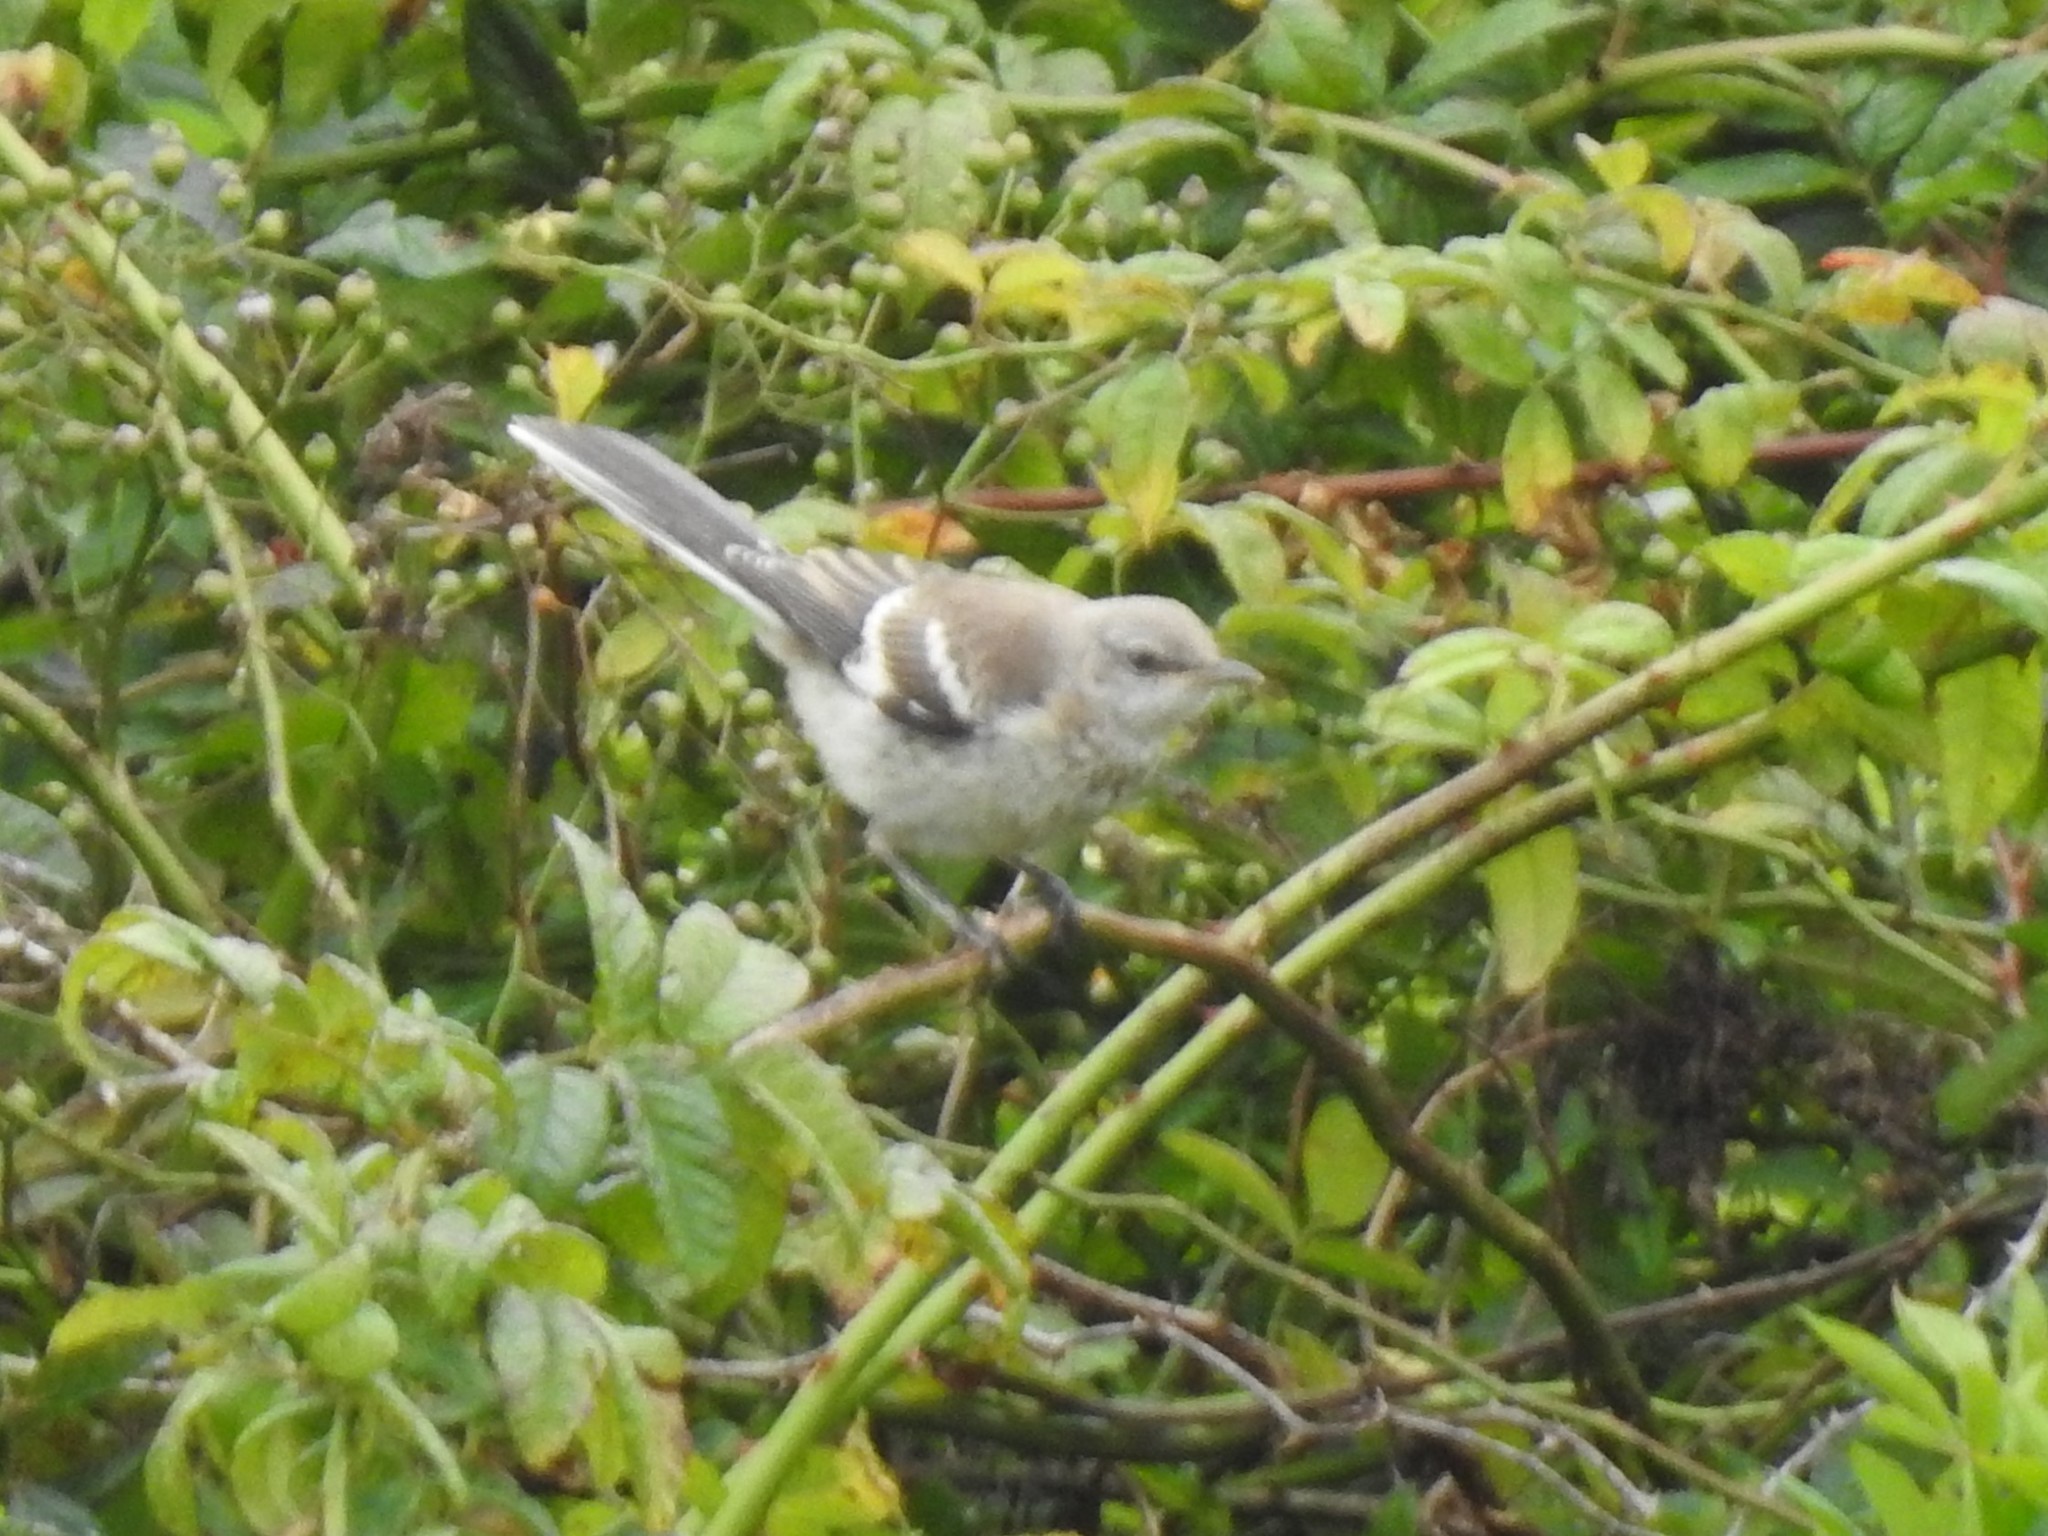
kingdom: Animalia
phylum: Chordata
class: Aves
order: Passeriformes
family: Mimidae
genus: Mimus
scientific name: Mimus polyglottos
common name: Northern mockingbird
